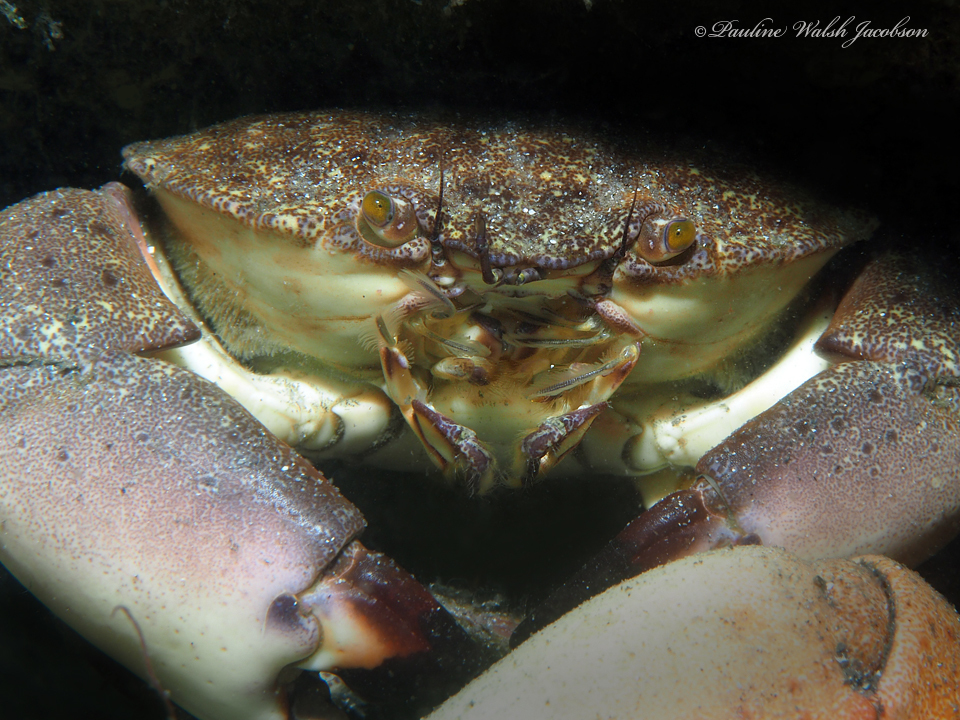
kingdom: Animalia
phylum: Arthropoda
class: Malacostraca
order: Decapoda
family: Menippidae
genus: Menippe
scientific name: Menippe mercenaria
